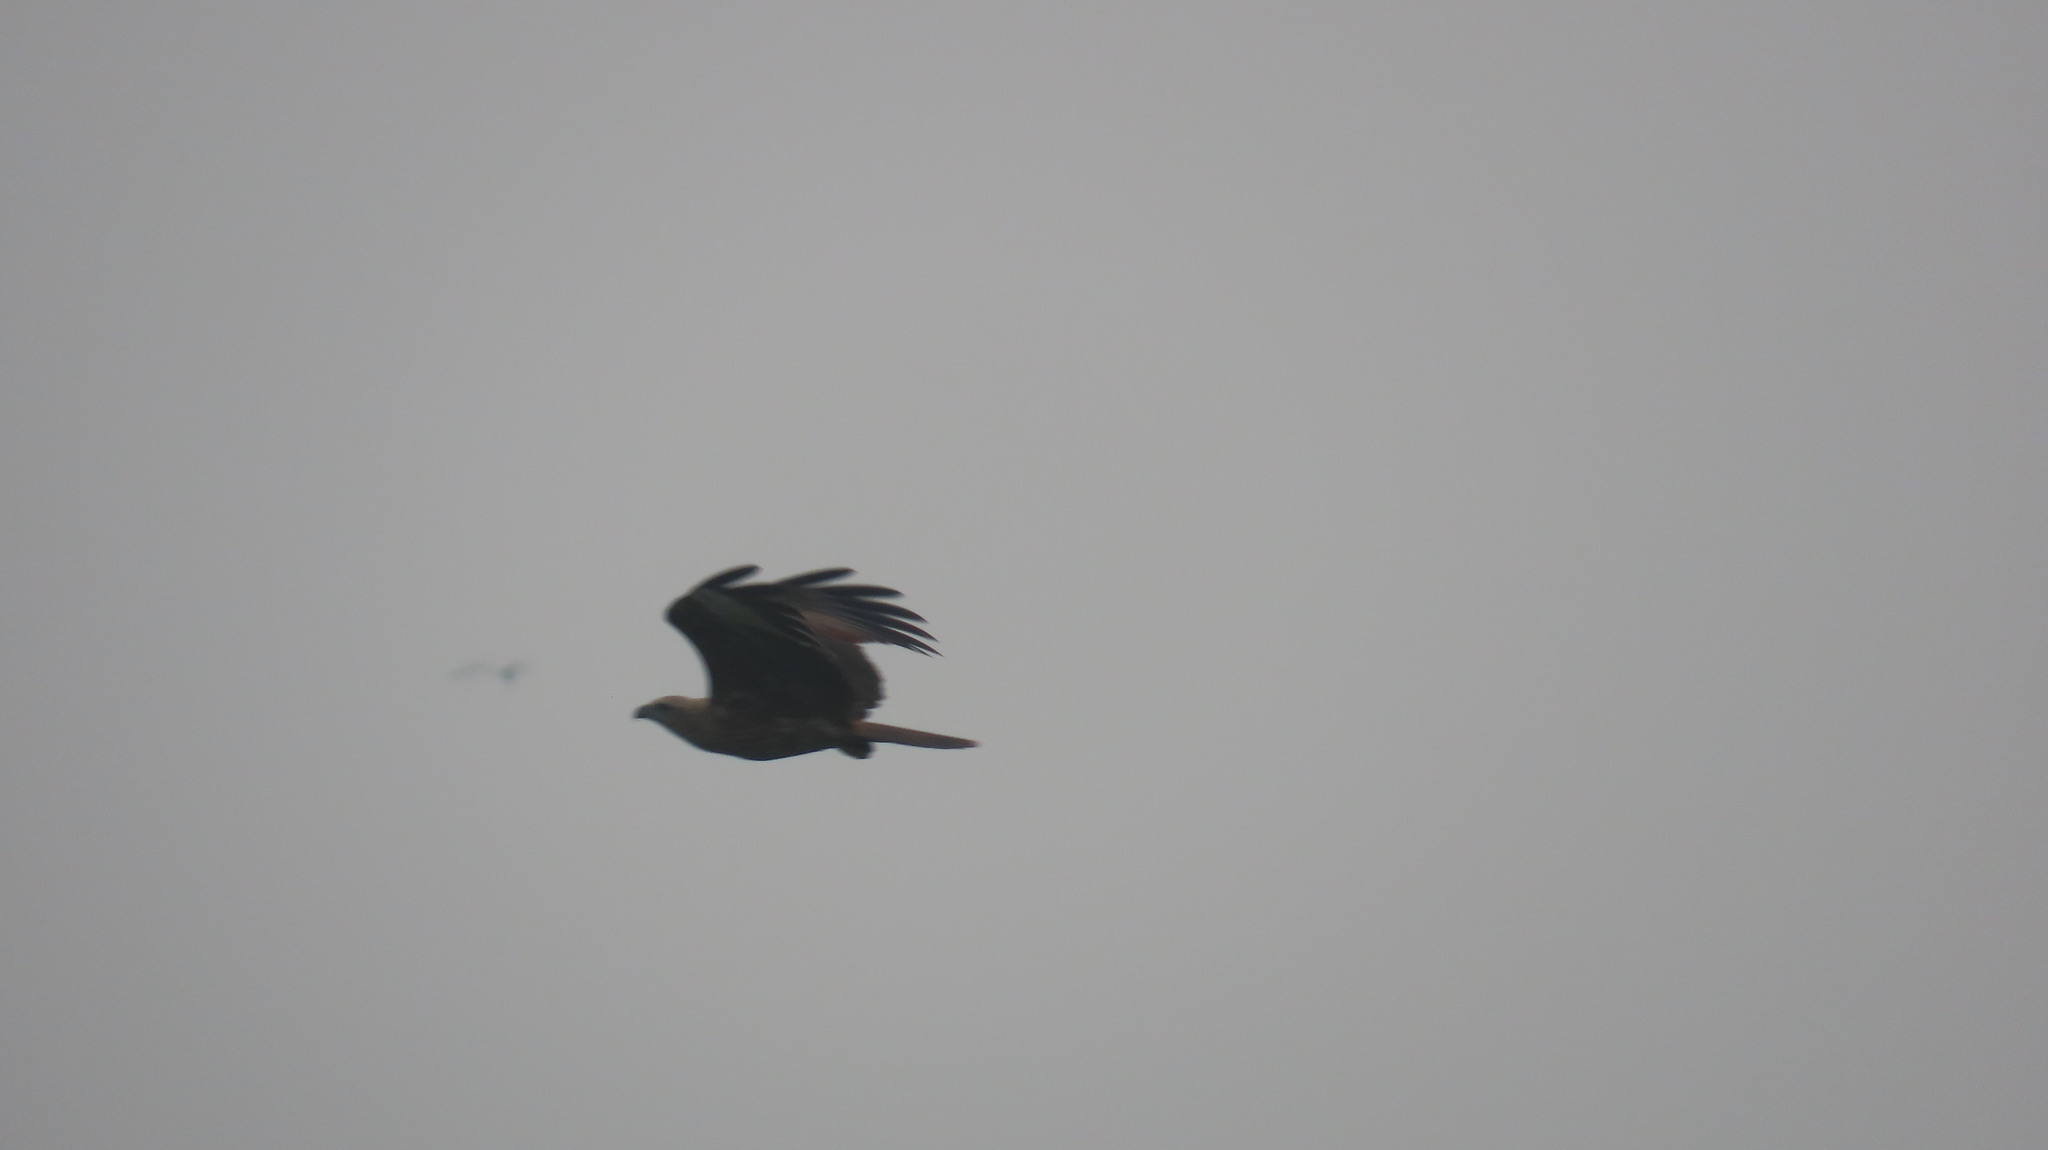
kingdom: Animalia
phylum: Chordata
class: Aves
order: Accipitriformes
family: Accipitridae
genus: Haliastur
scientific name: Haliastur indus
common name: Brahminy kite
